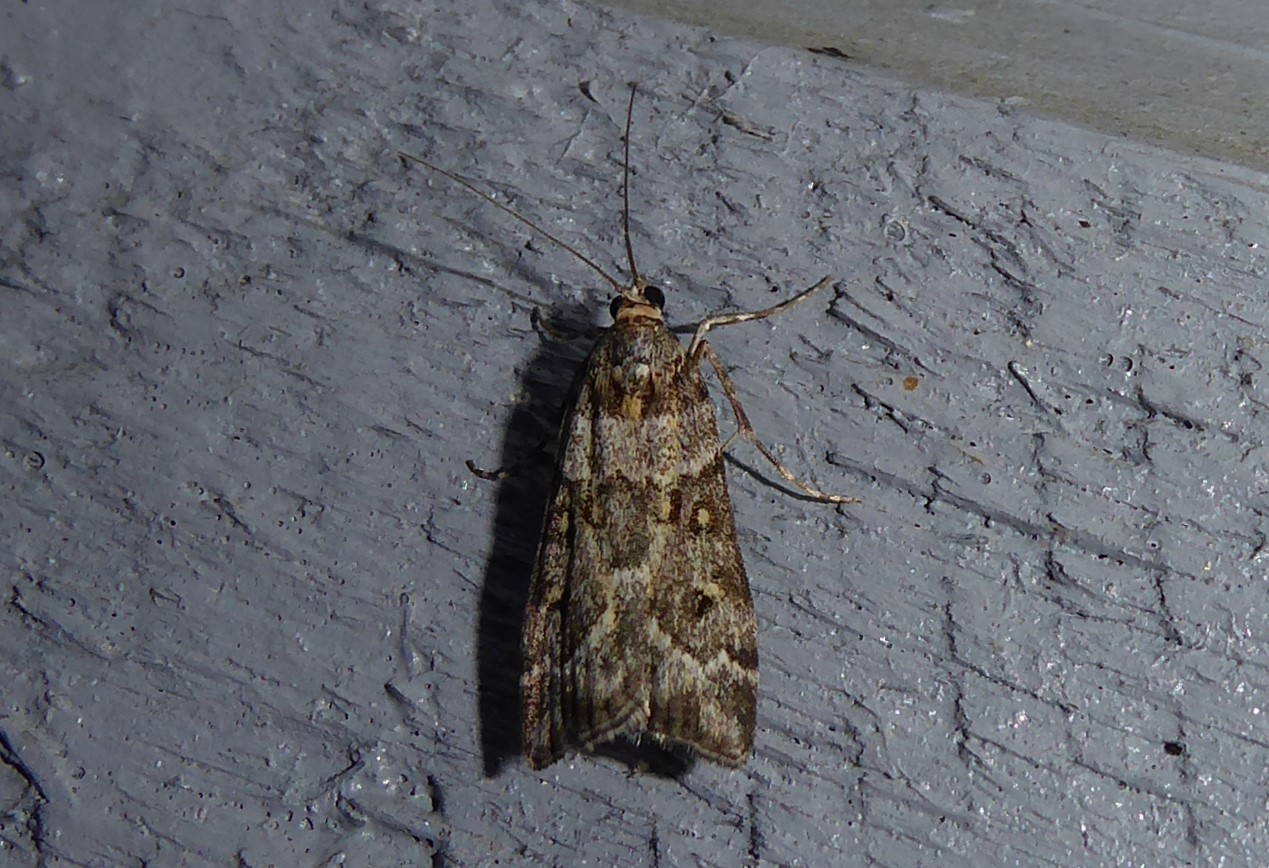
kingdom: Animalia
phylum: Arthropoda
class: Insecta
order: Lepidoptera
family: Crambidae
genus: Eudonia
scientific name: Eudonia diphtheralis
